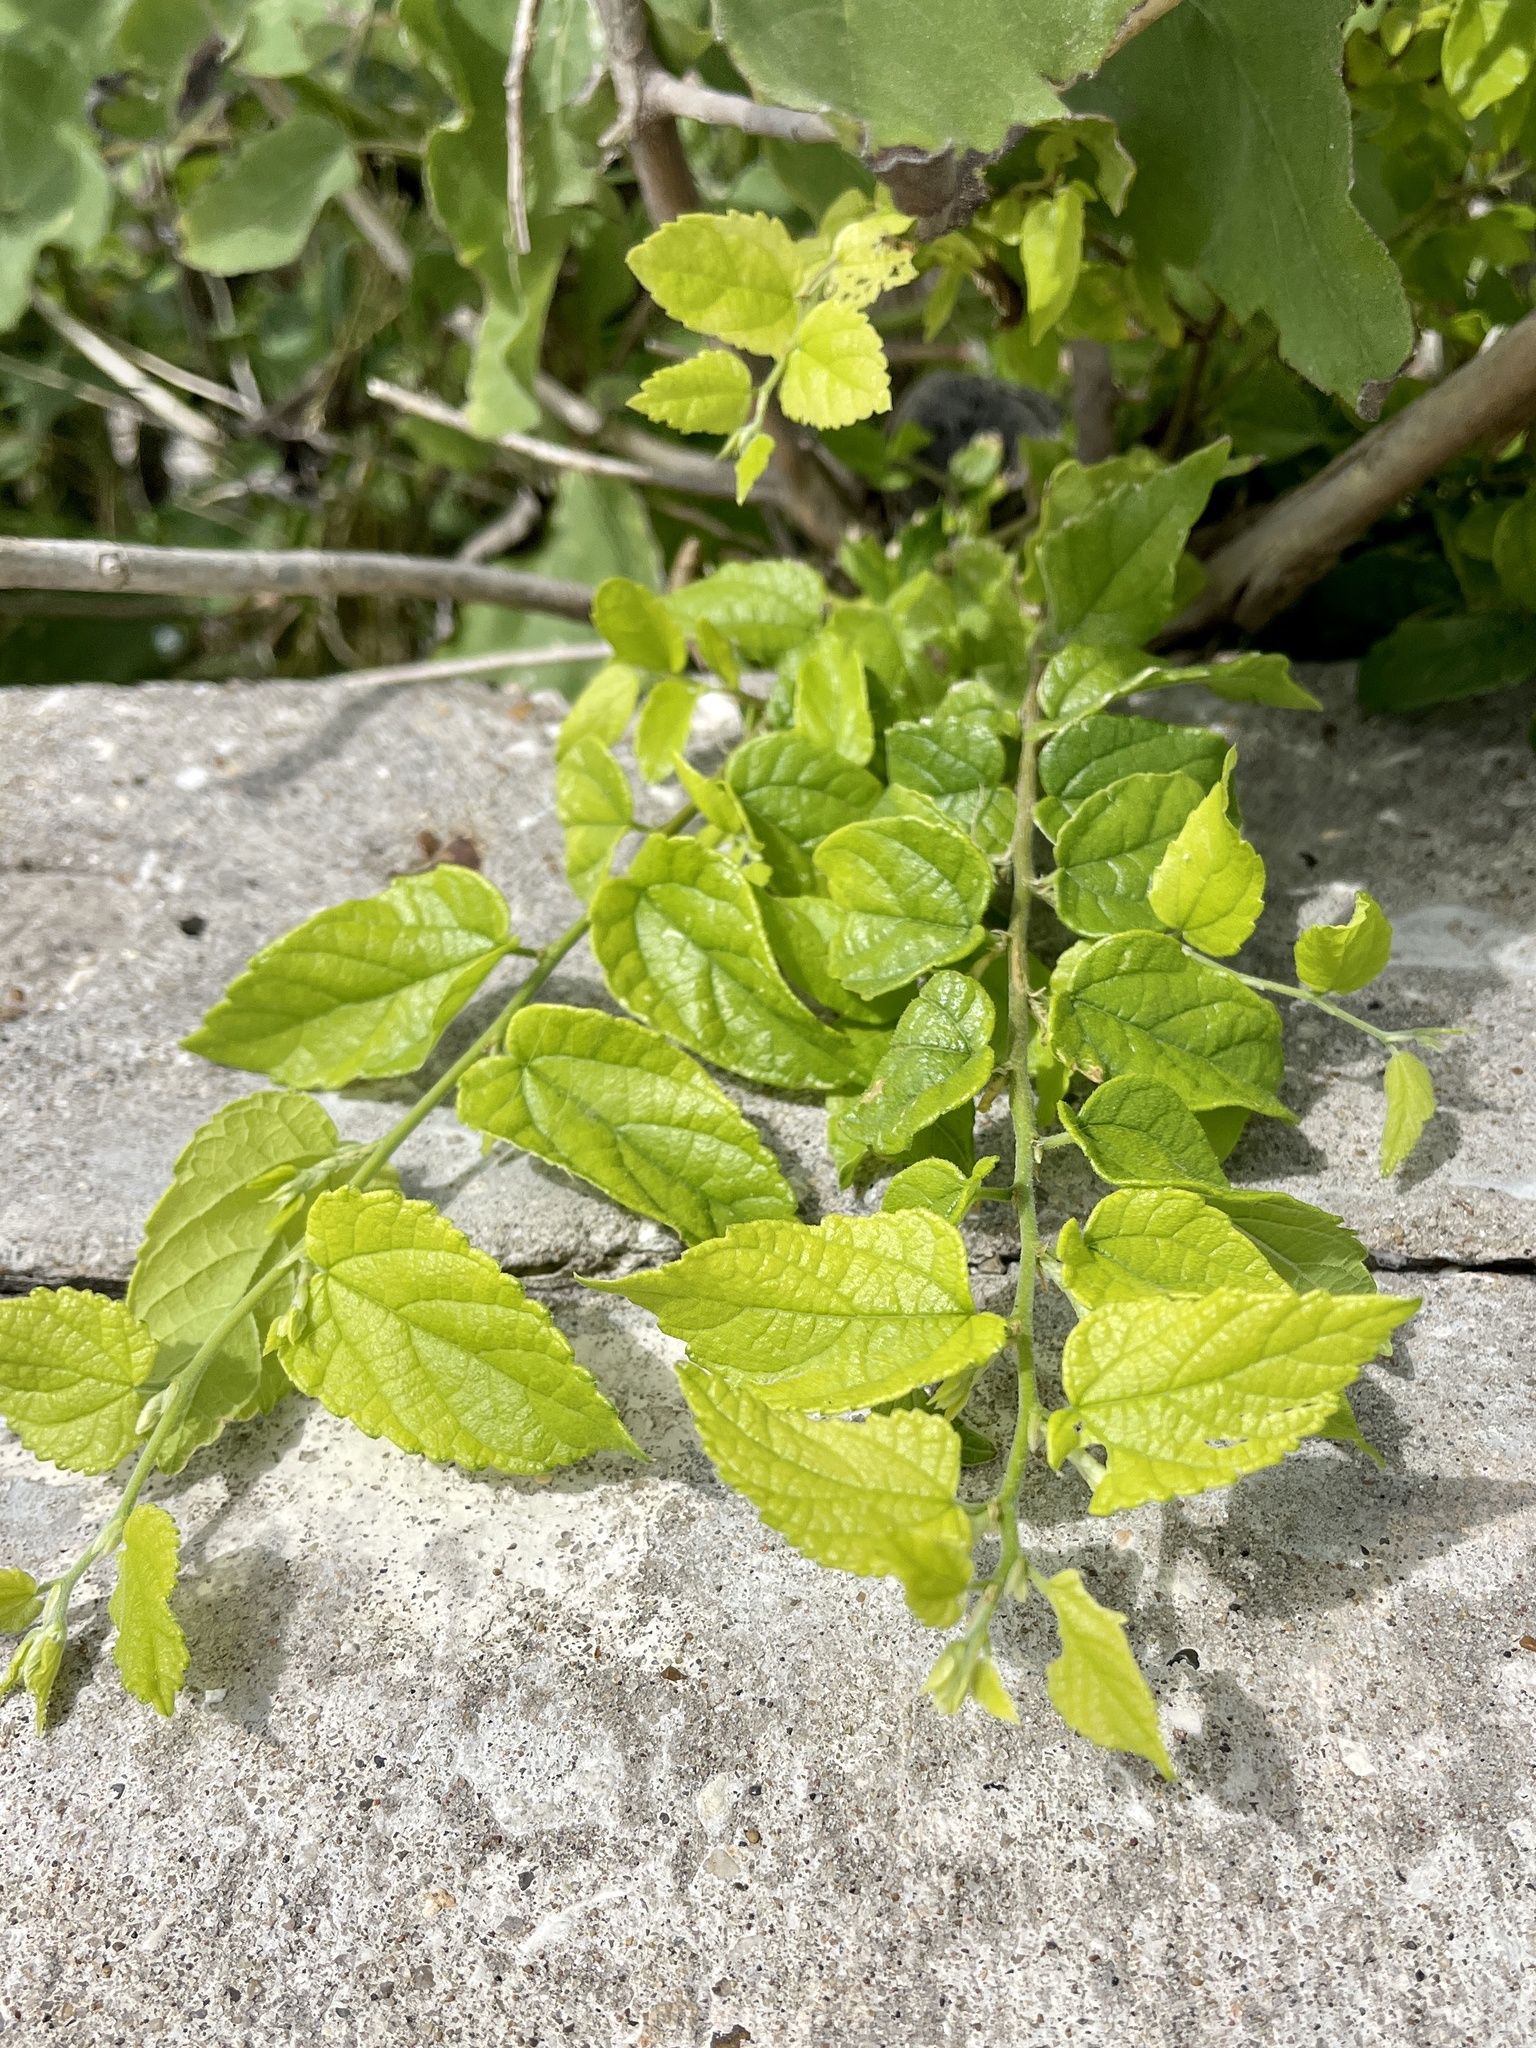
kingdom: Plantae
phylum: Tracheophyta
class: Magnoliopsida
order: Rosales
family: Cannabaceae
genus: Celtis
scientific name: Celtis laevigata
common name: Sugarberry
